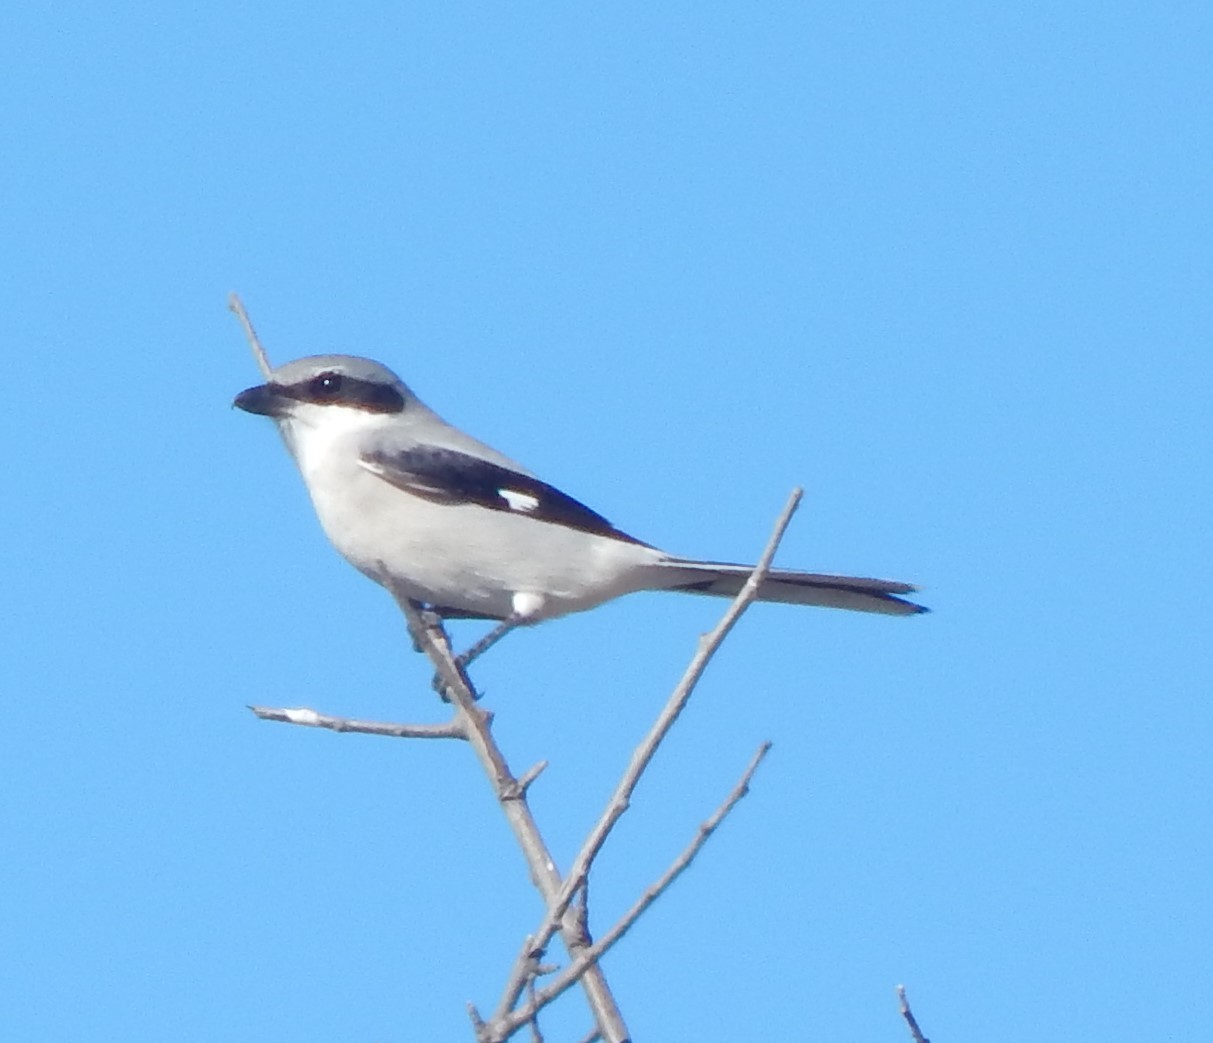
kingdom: Animalia
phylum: Chordata
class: Aves
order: Passeriformes
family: Laniidae
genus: Lanius
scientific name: Lanius ludovicianus
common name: Loggerhead shrike
